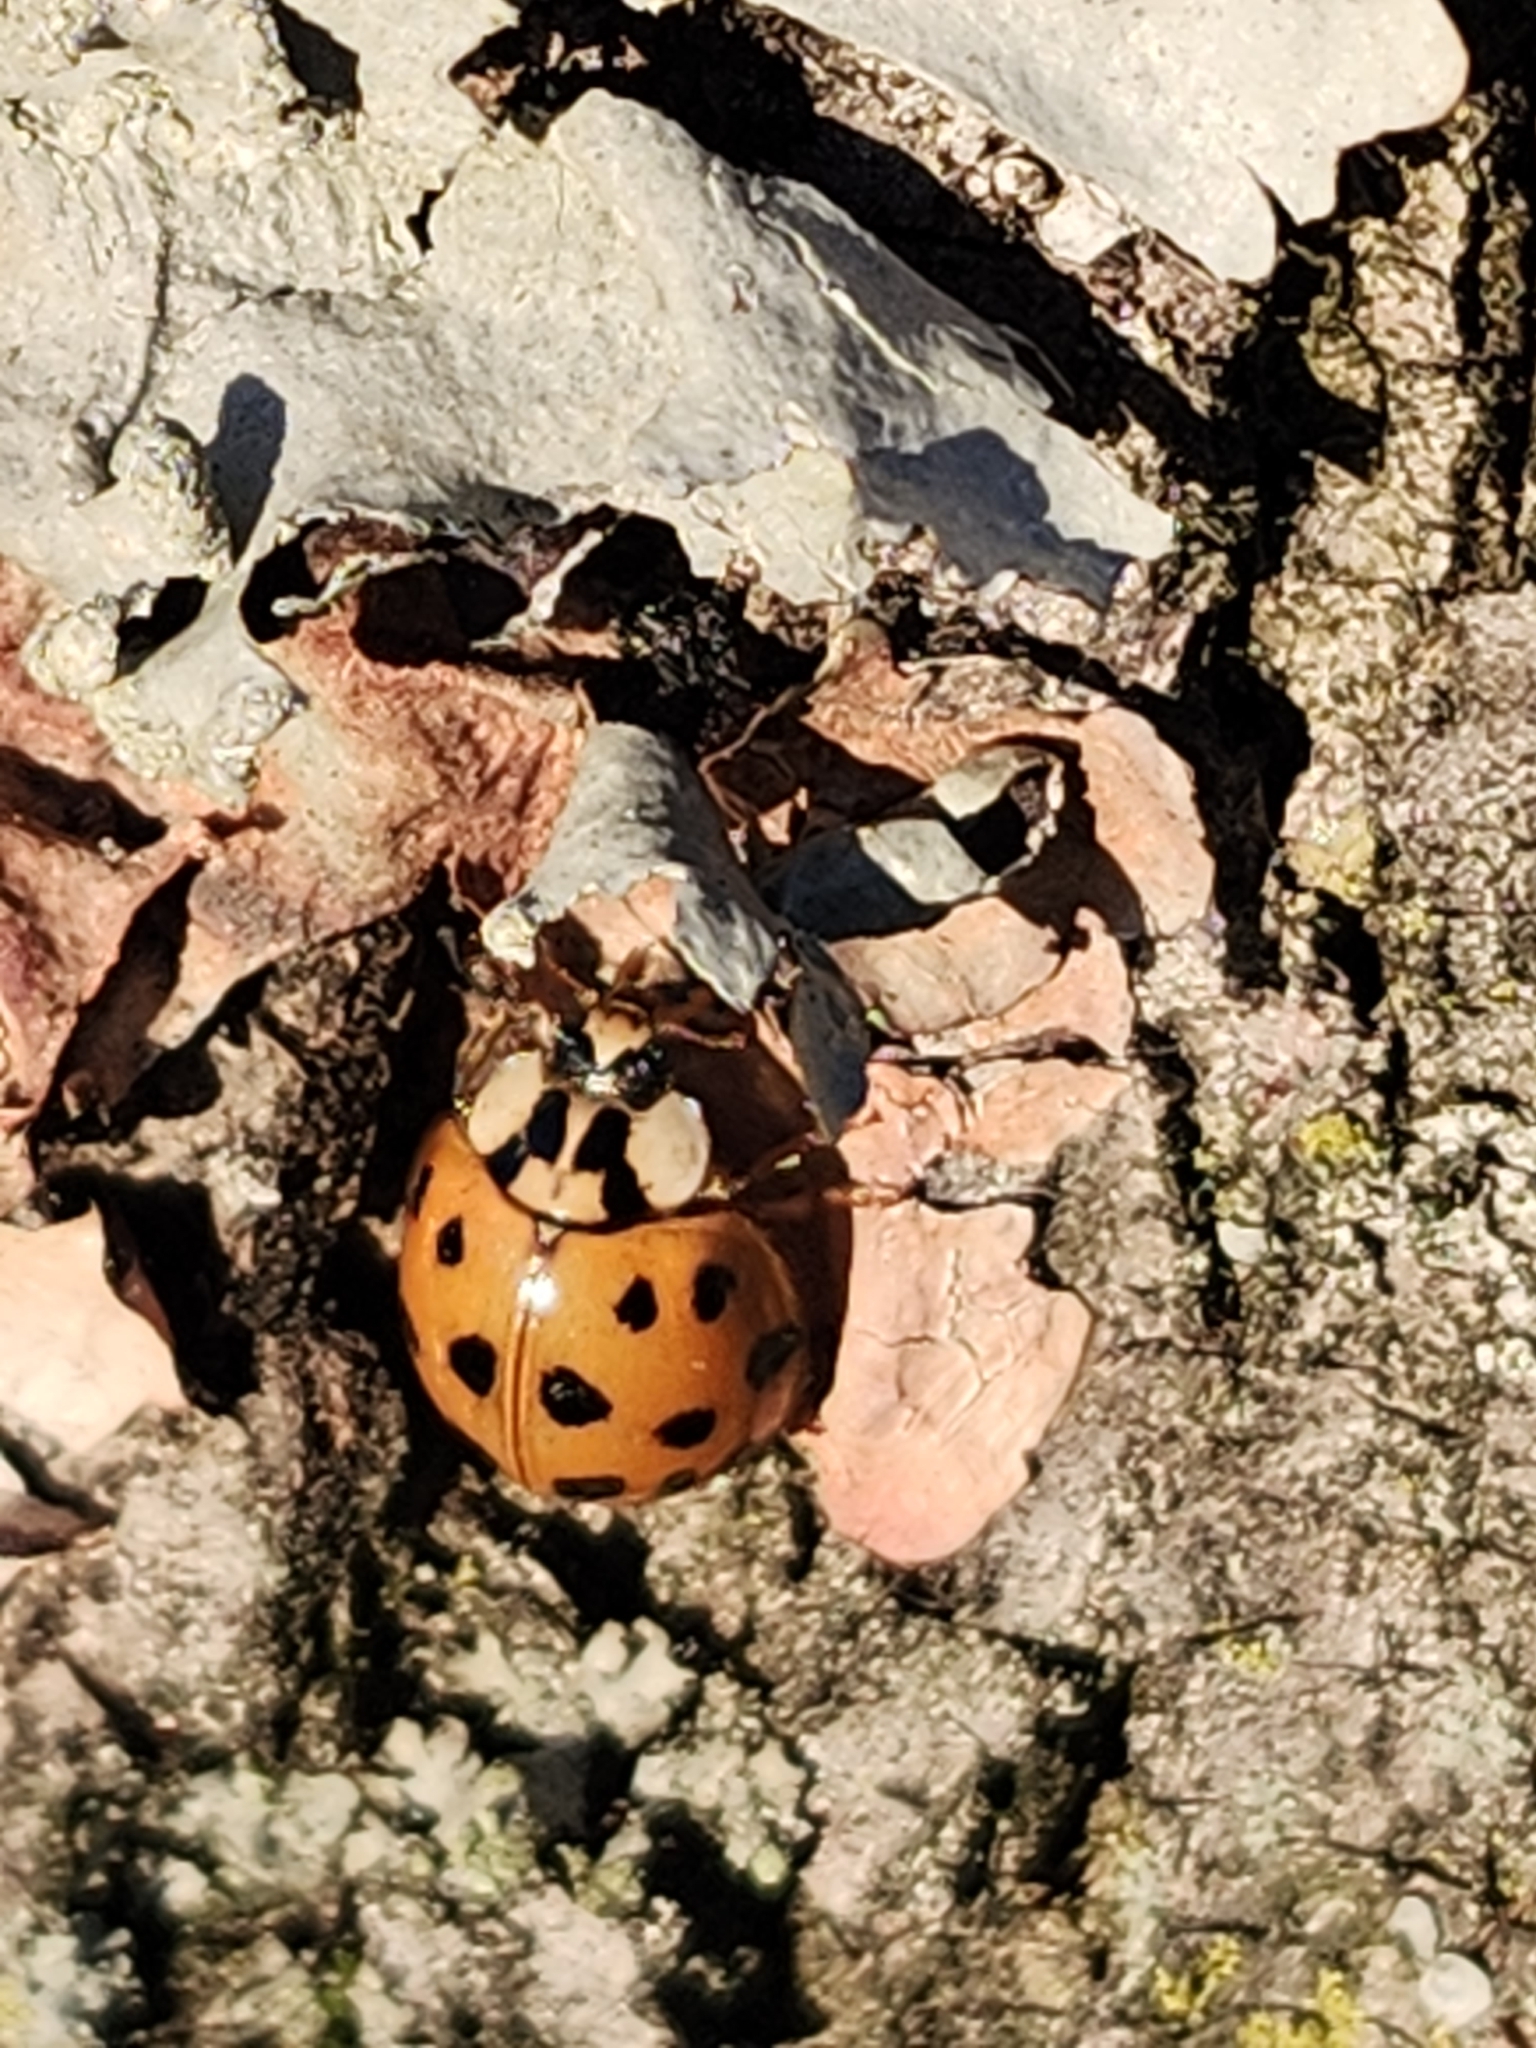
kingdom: Animalia
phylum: Arthropoda
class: Insecta
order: Coleoptera
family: Coccinellidae
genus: Harmonia
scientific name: Harmonia axyridis
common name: Harlequin ladybird
